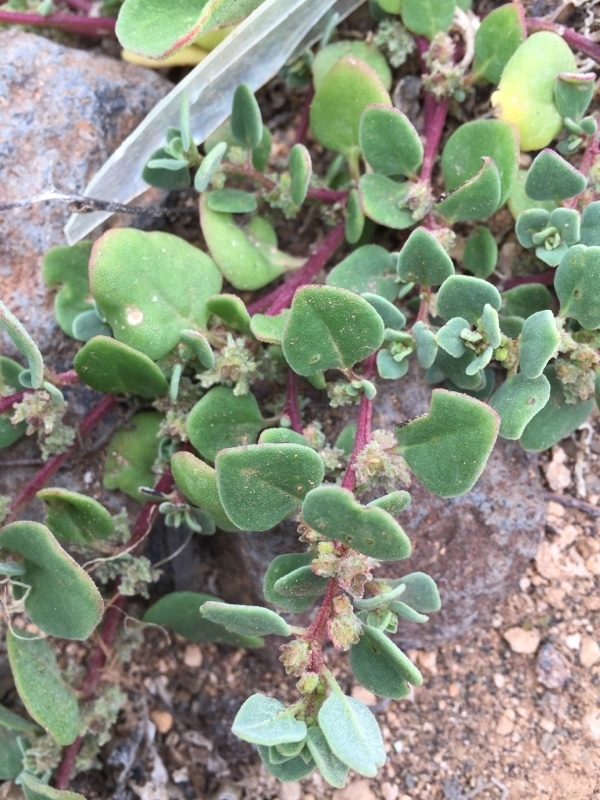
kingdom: Plantae
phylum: Tracheophyta
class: Magnoliopsida
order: Caryophyllales
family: Aizoaceae
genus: Tetragonia
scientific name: Tetragonia echinata
